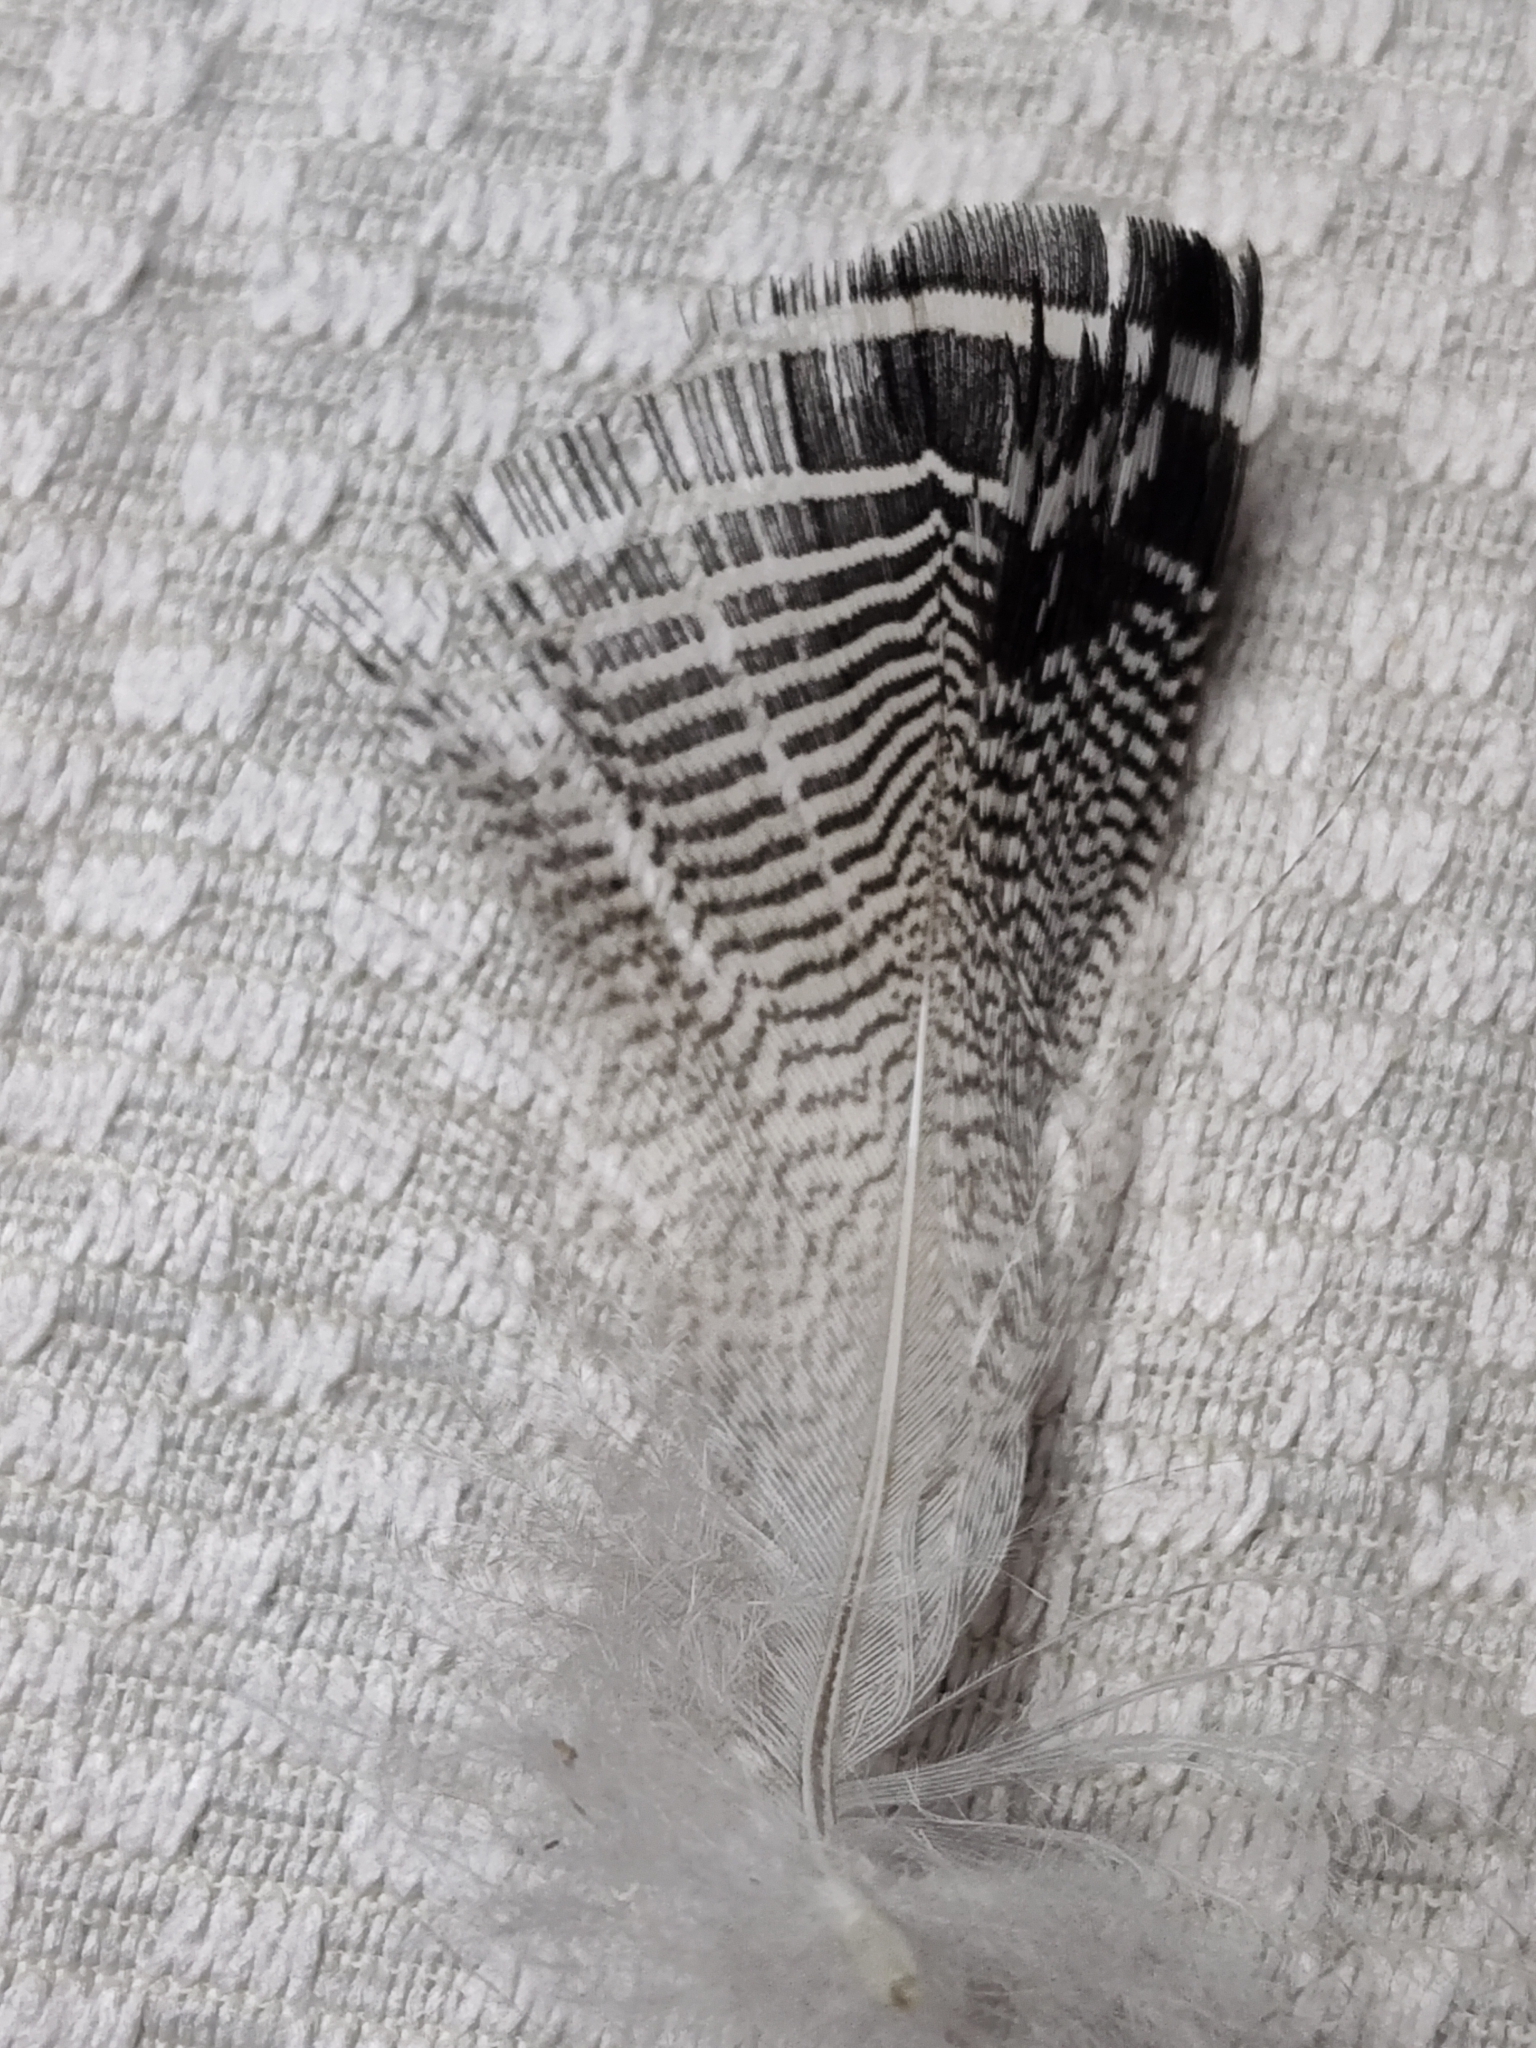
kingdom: Animalia
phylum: Chordata
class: Aves
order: Anseriformes
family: Anatidae
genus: Aix
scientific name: Aix sponsa
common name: Wood duck
